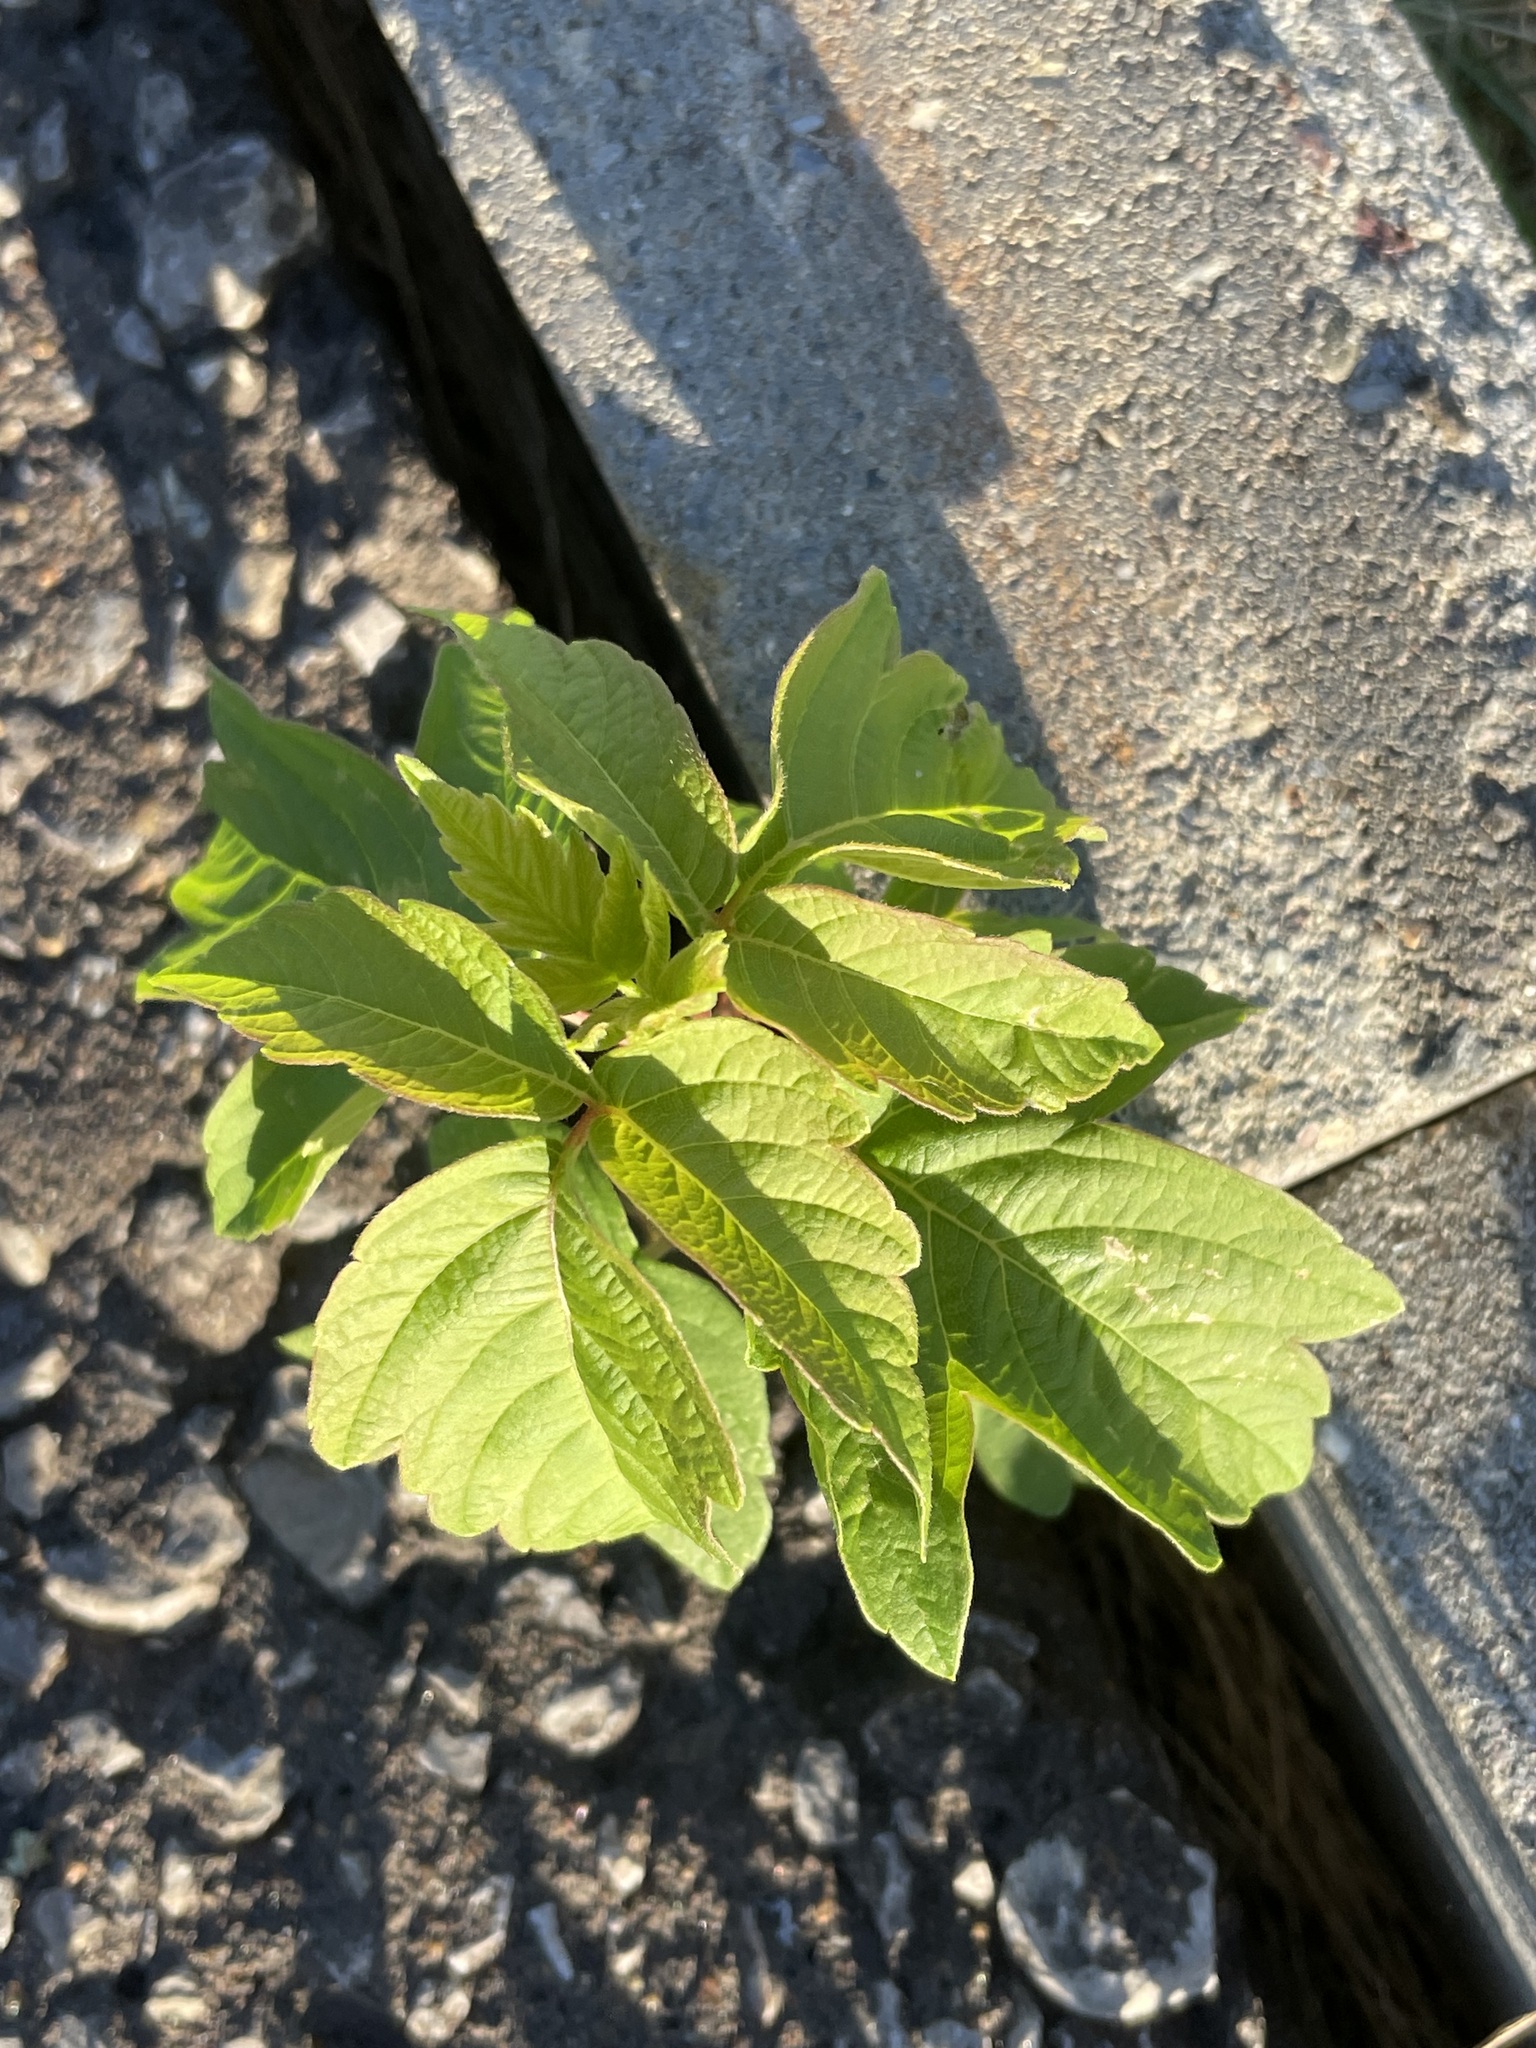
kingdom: Plantae
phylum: Tracheophyta
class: Magnoliopsida
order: Sapindales
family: Sapindaceae
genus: Acer
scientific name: Acer negundo
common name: Ashleaf maple
